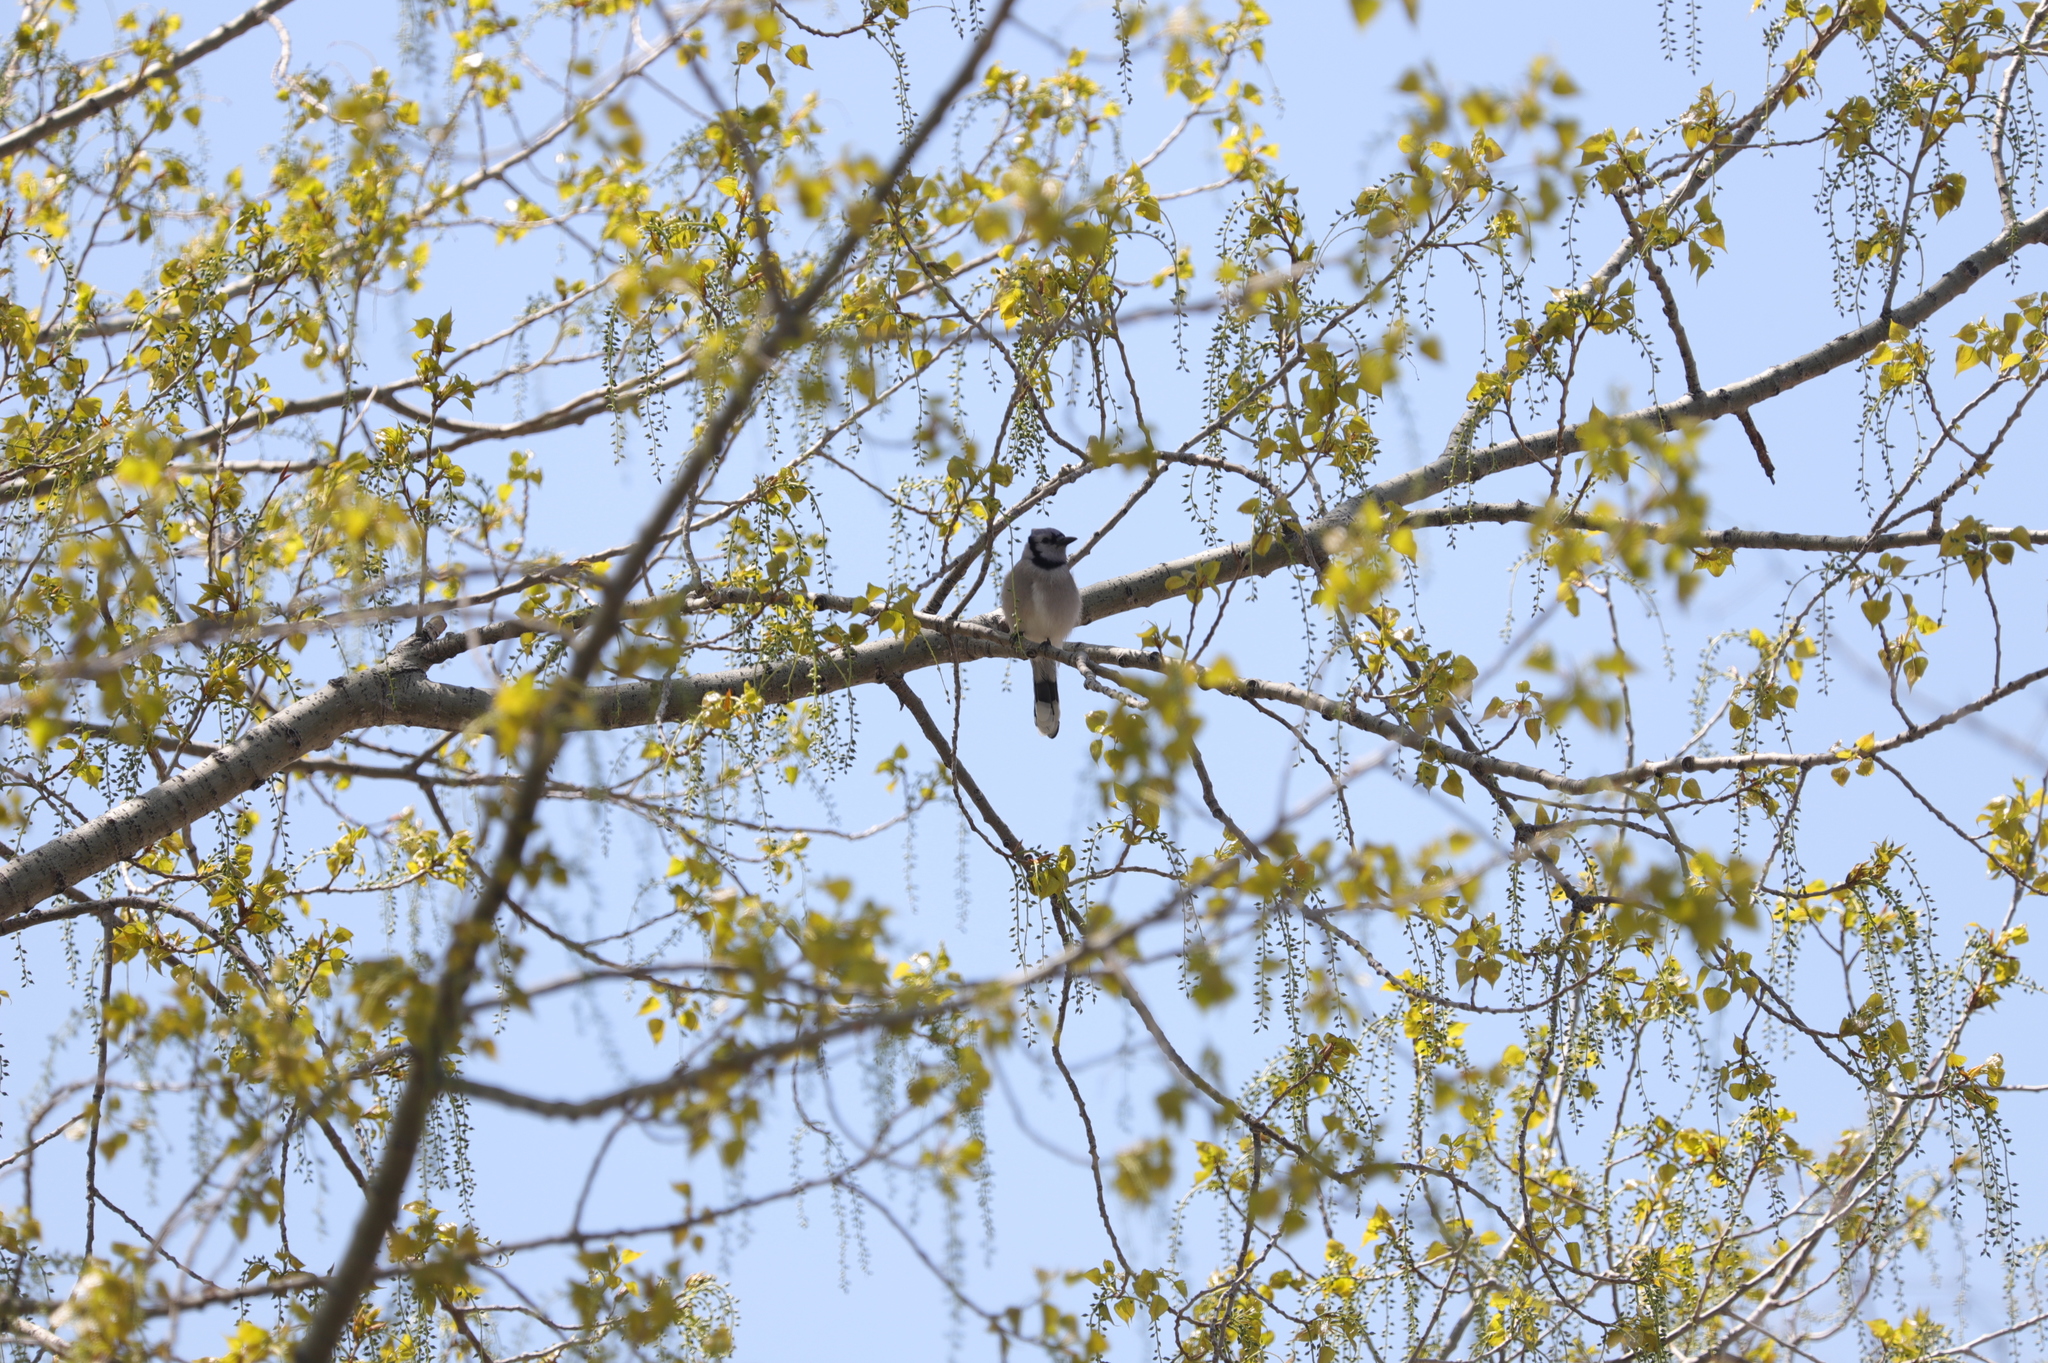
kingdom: Animalia
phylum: Chordata
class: Aves
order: Passeriformes
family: Corvidae
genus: Cyanocitta
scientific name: Cyanocitta cristata
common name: Blue jay
